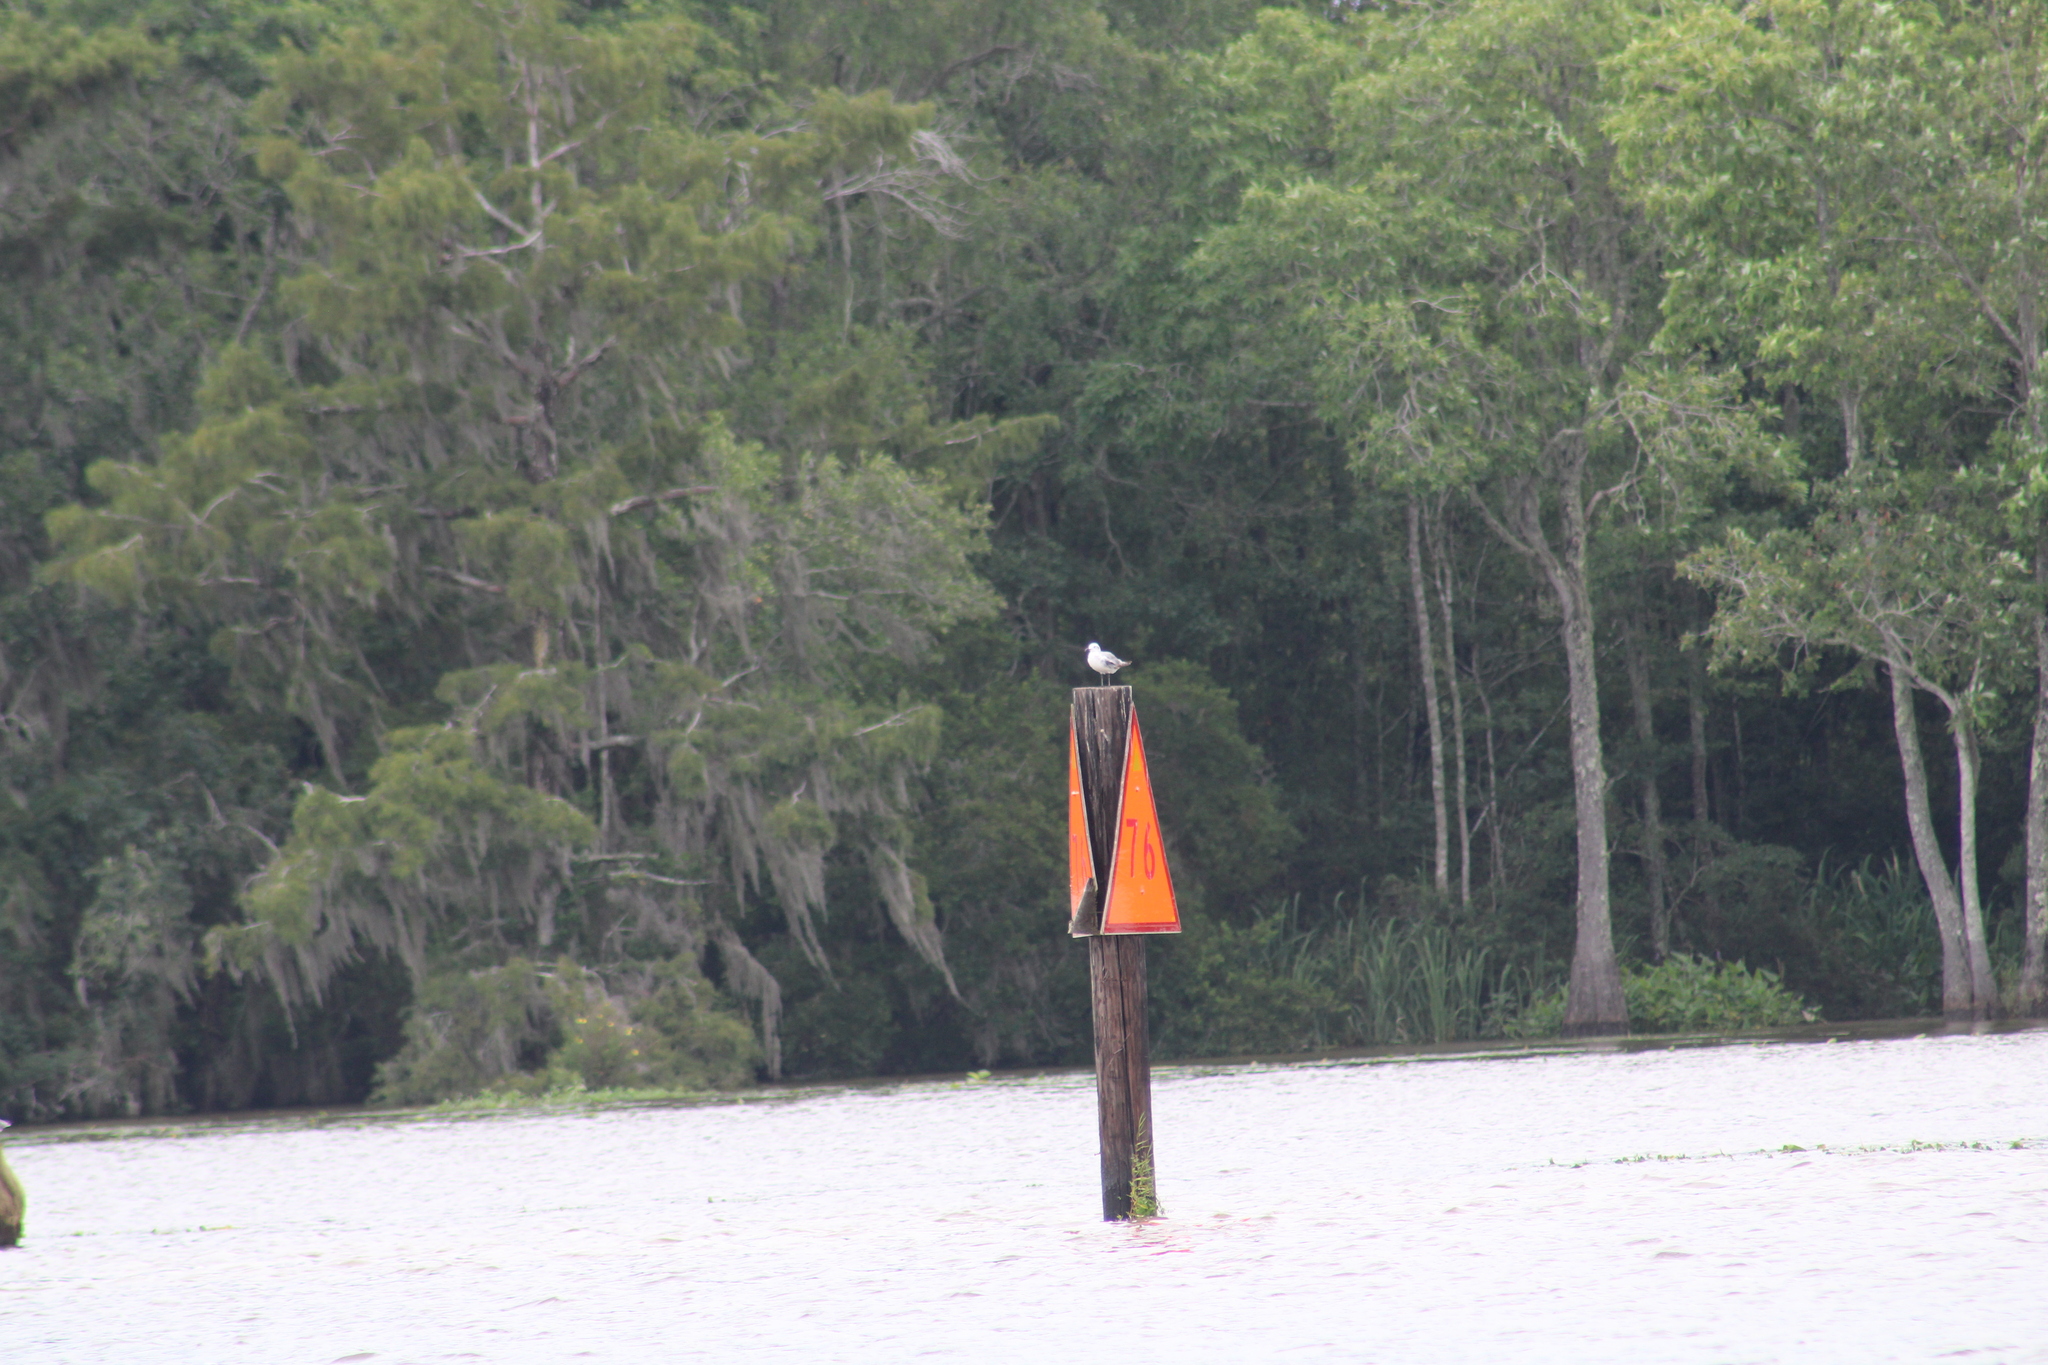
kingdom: Animalia
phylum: Chordata
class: Aves
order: Charadriiformes
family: Laridae
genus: Leucophaeus
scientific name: Leucophaeus atricilla
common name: Laughing gull
